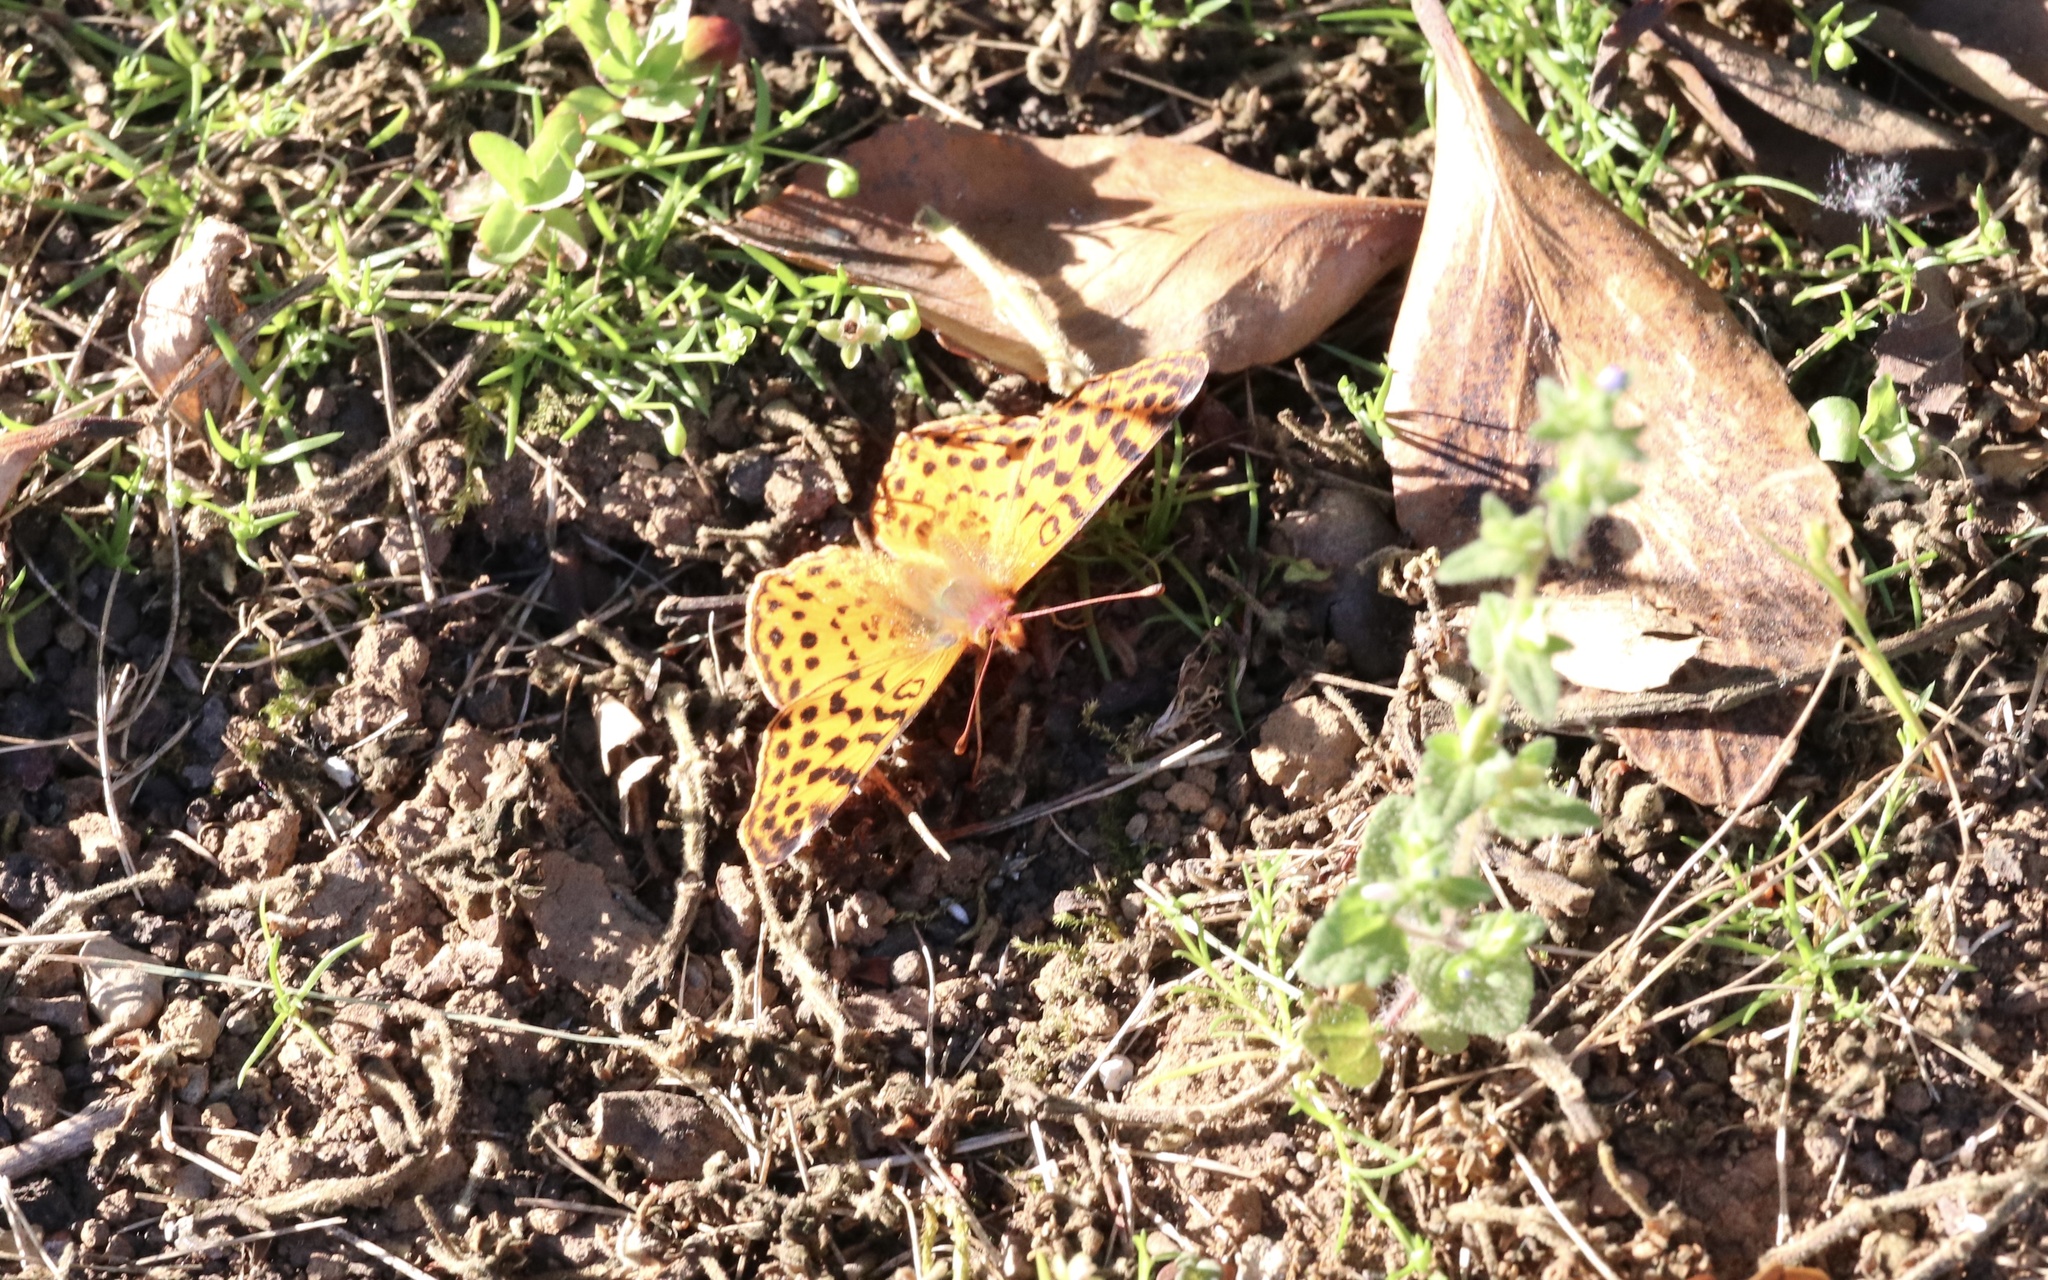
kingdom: Animalia
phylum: Arthropoda
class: Insecta
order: Lepidoptera
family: Nymphalidae
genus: Issoria
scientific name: Issoria Yramea cytheris
